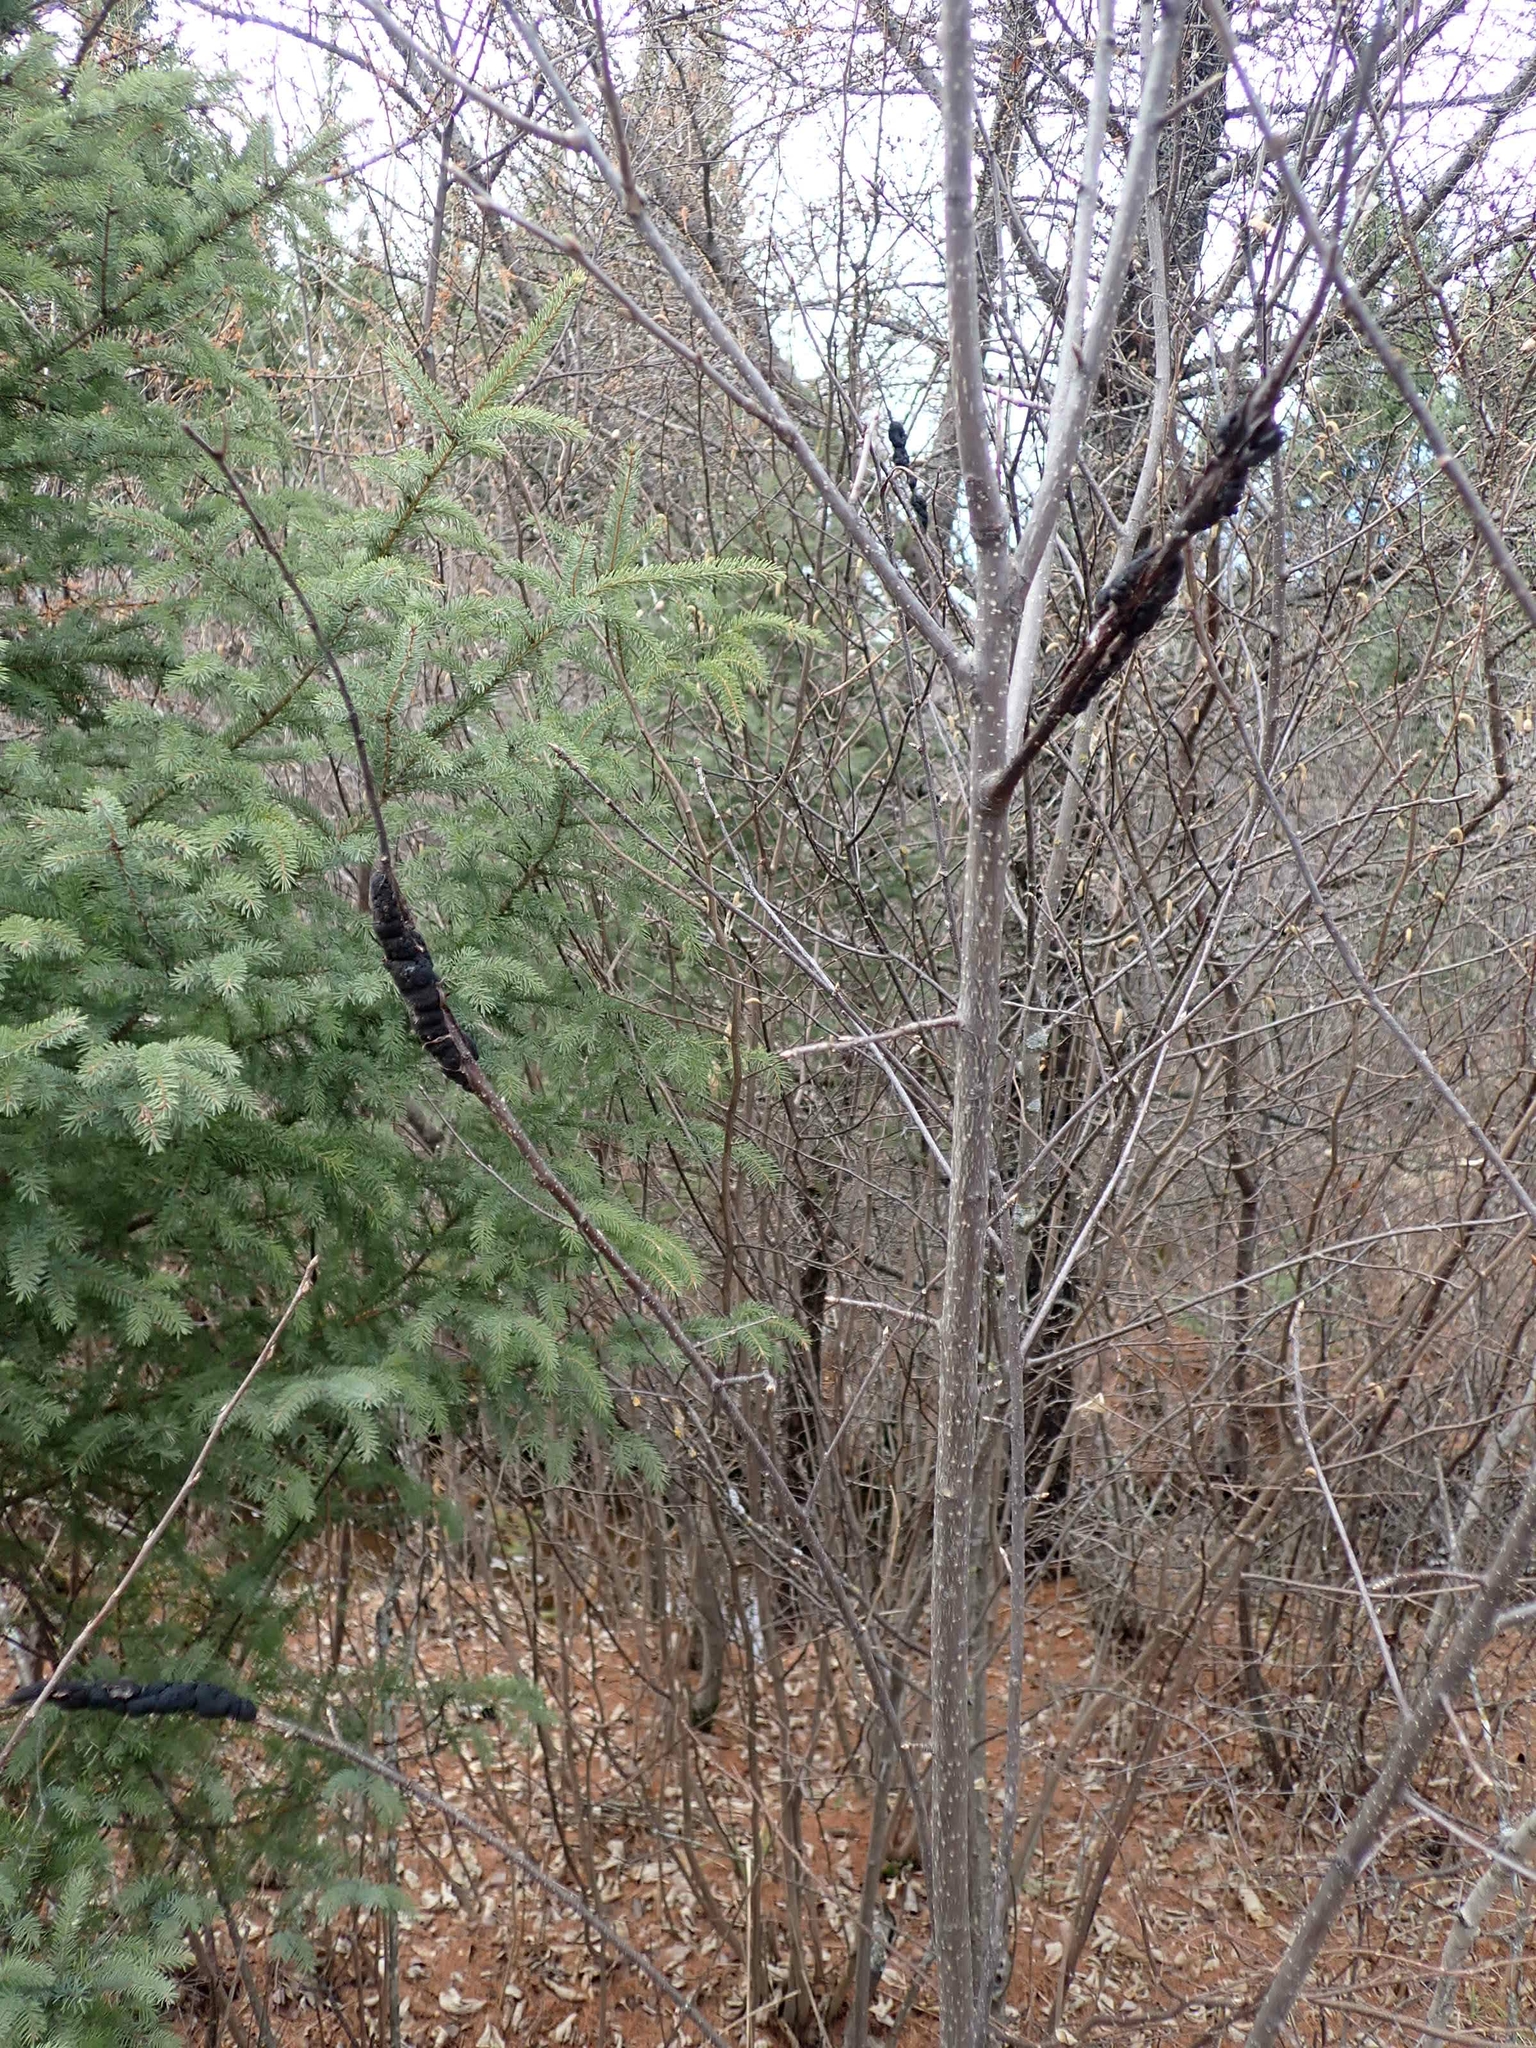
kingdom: Fungi
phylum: Ascomycota
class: Dothideomycetes
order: Venturiales
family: Venturiaceae
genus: Apiosporina
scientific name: Apiosporina morbosa
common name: Black knot
